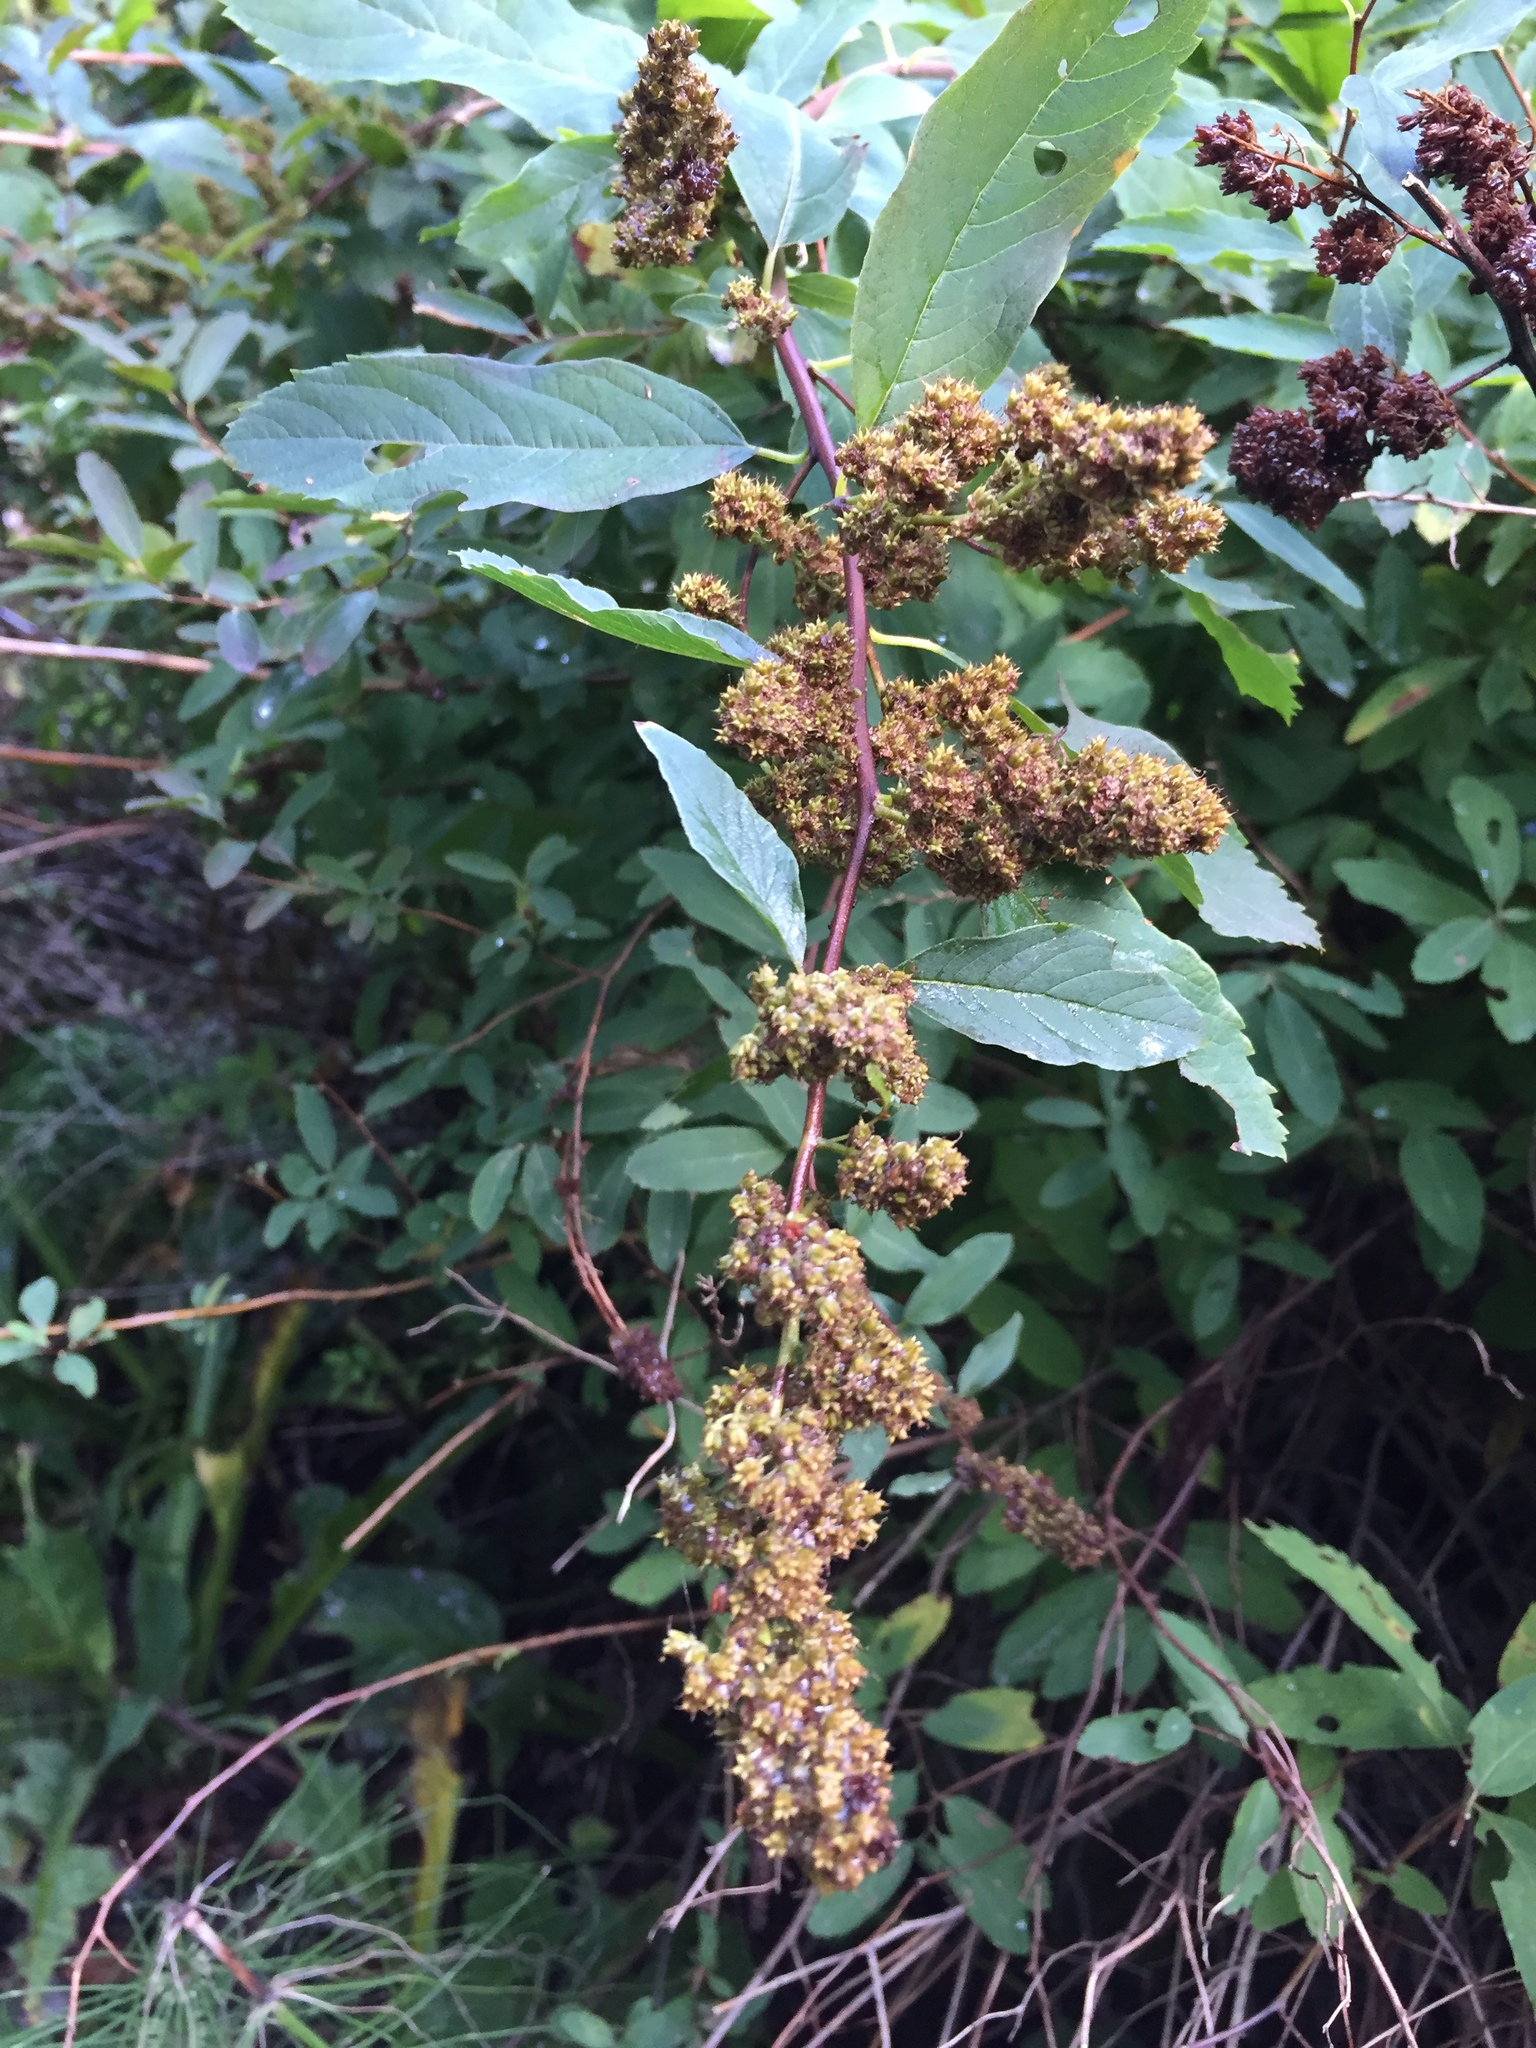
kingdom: Plantae
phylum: Tracheophyta
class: Magnoliopsida
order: Rosales
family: Rosaceae
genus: Spiraea
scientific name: Spiraea douglasii
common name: Steeplebush
